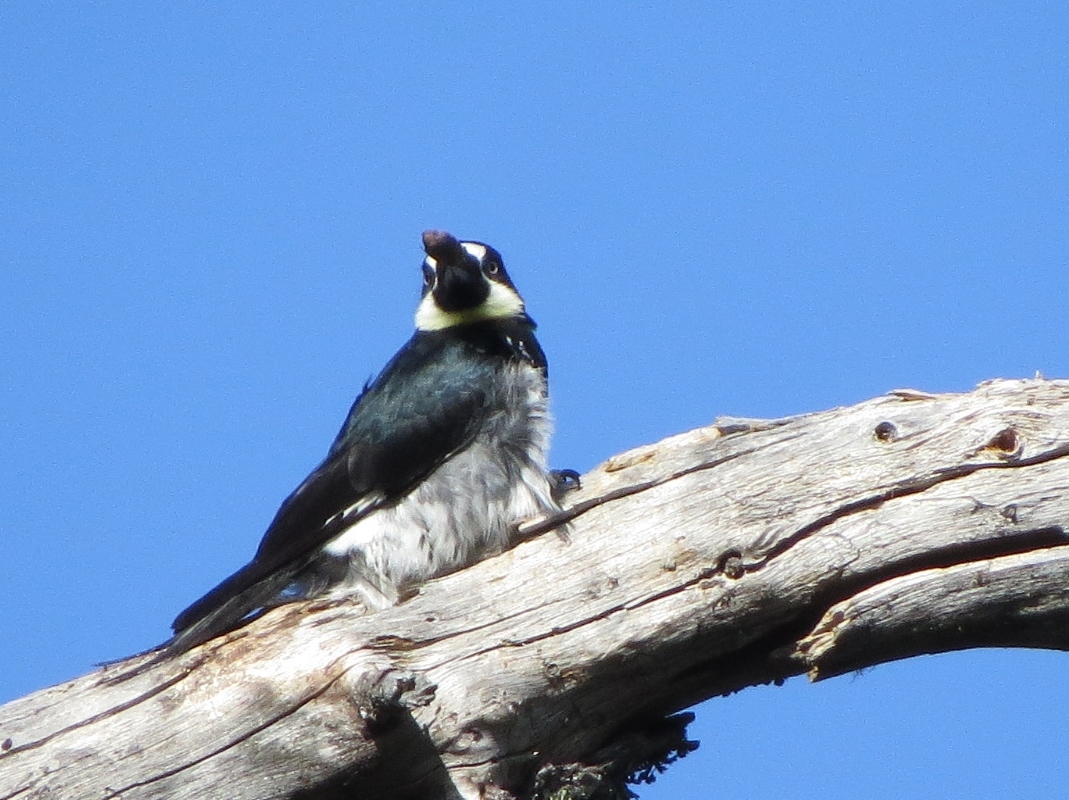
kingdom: Animalia
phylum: Chordata
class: Aves
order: Piciformes
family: Picidae
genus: Melanerpes
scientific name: Melanerpes formicivorus
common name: Acorn woodpecker
